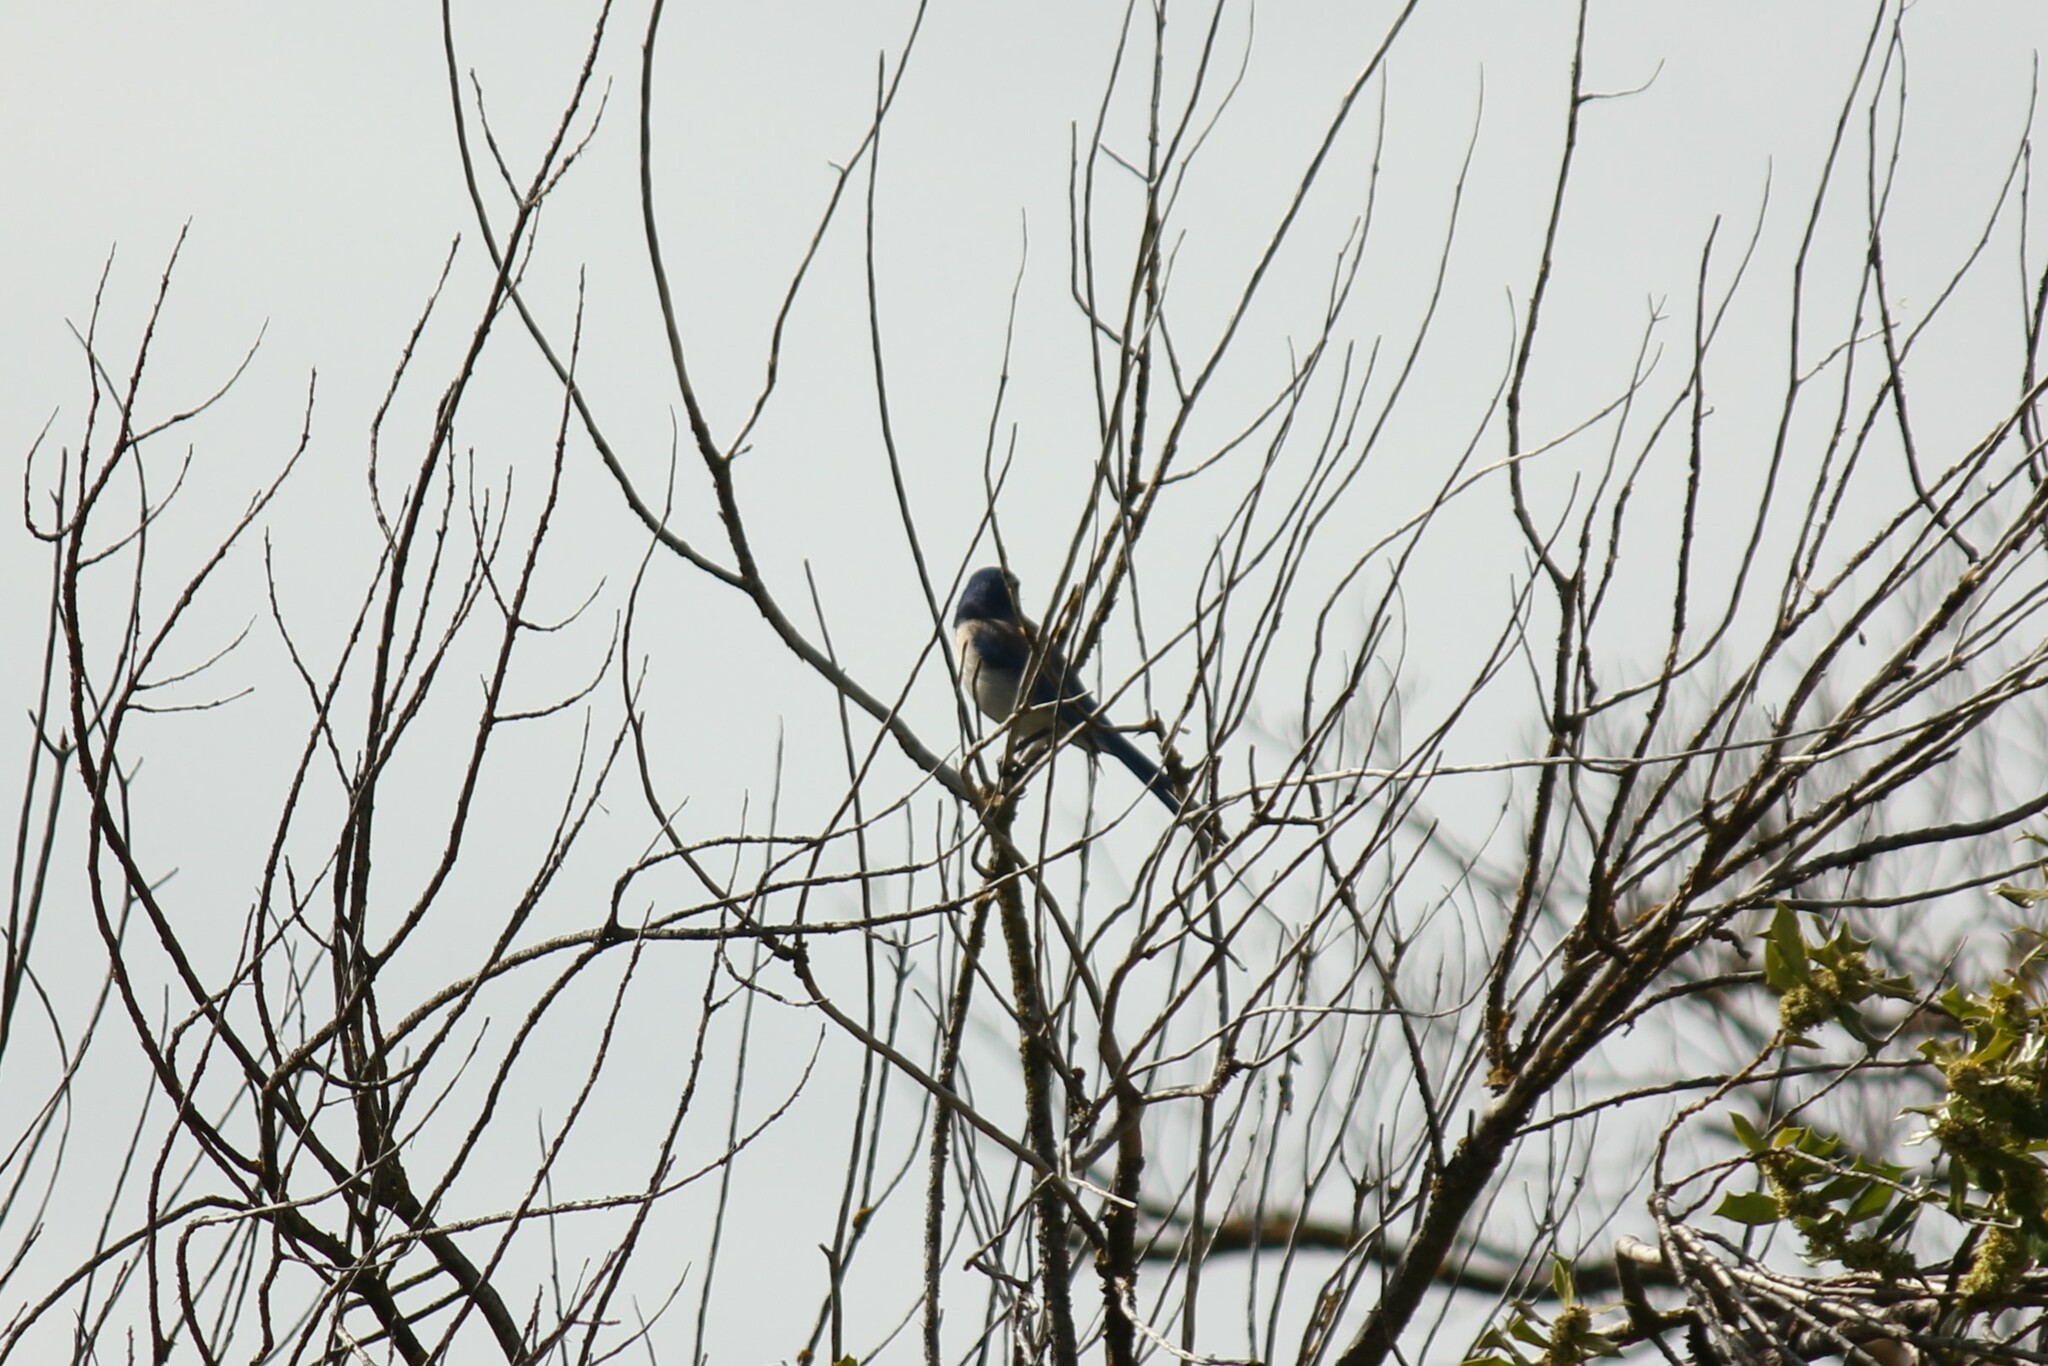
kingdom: Animalia
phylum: Chordata
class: Aves
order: Passeriformes
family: Corvidae
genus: Aphelocoma
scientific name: Aphelocoma californica
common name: California scrub-jay
